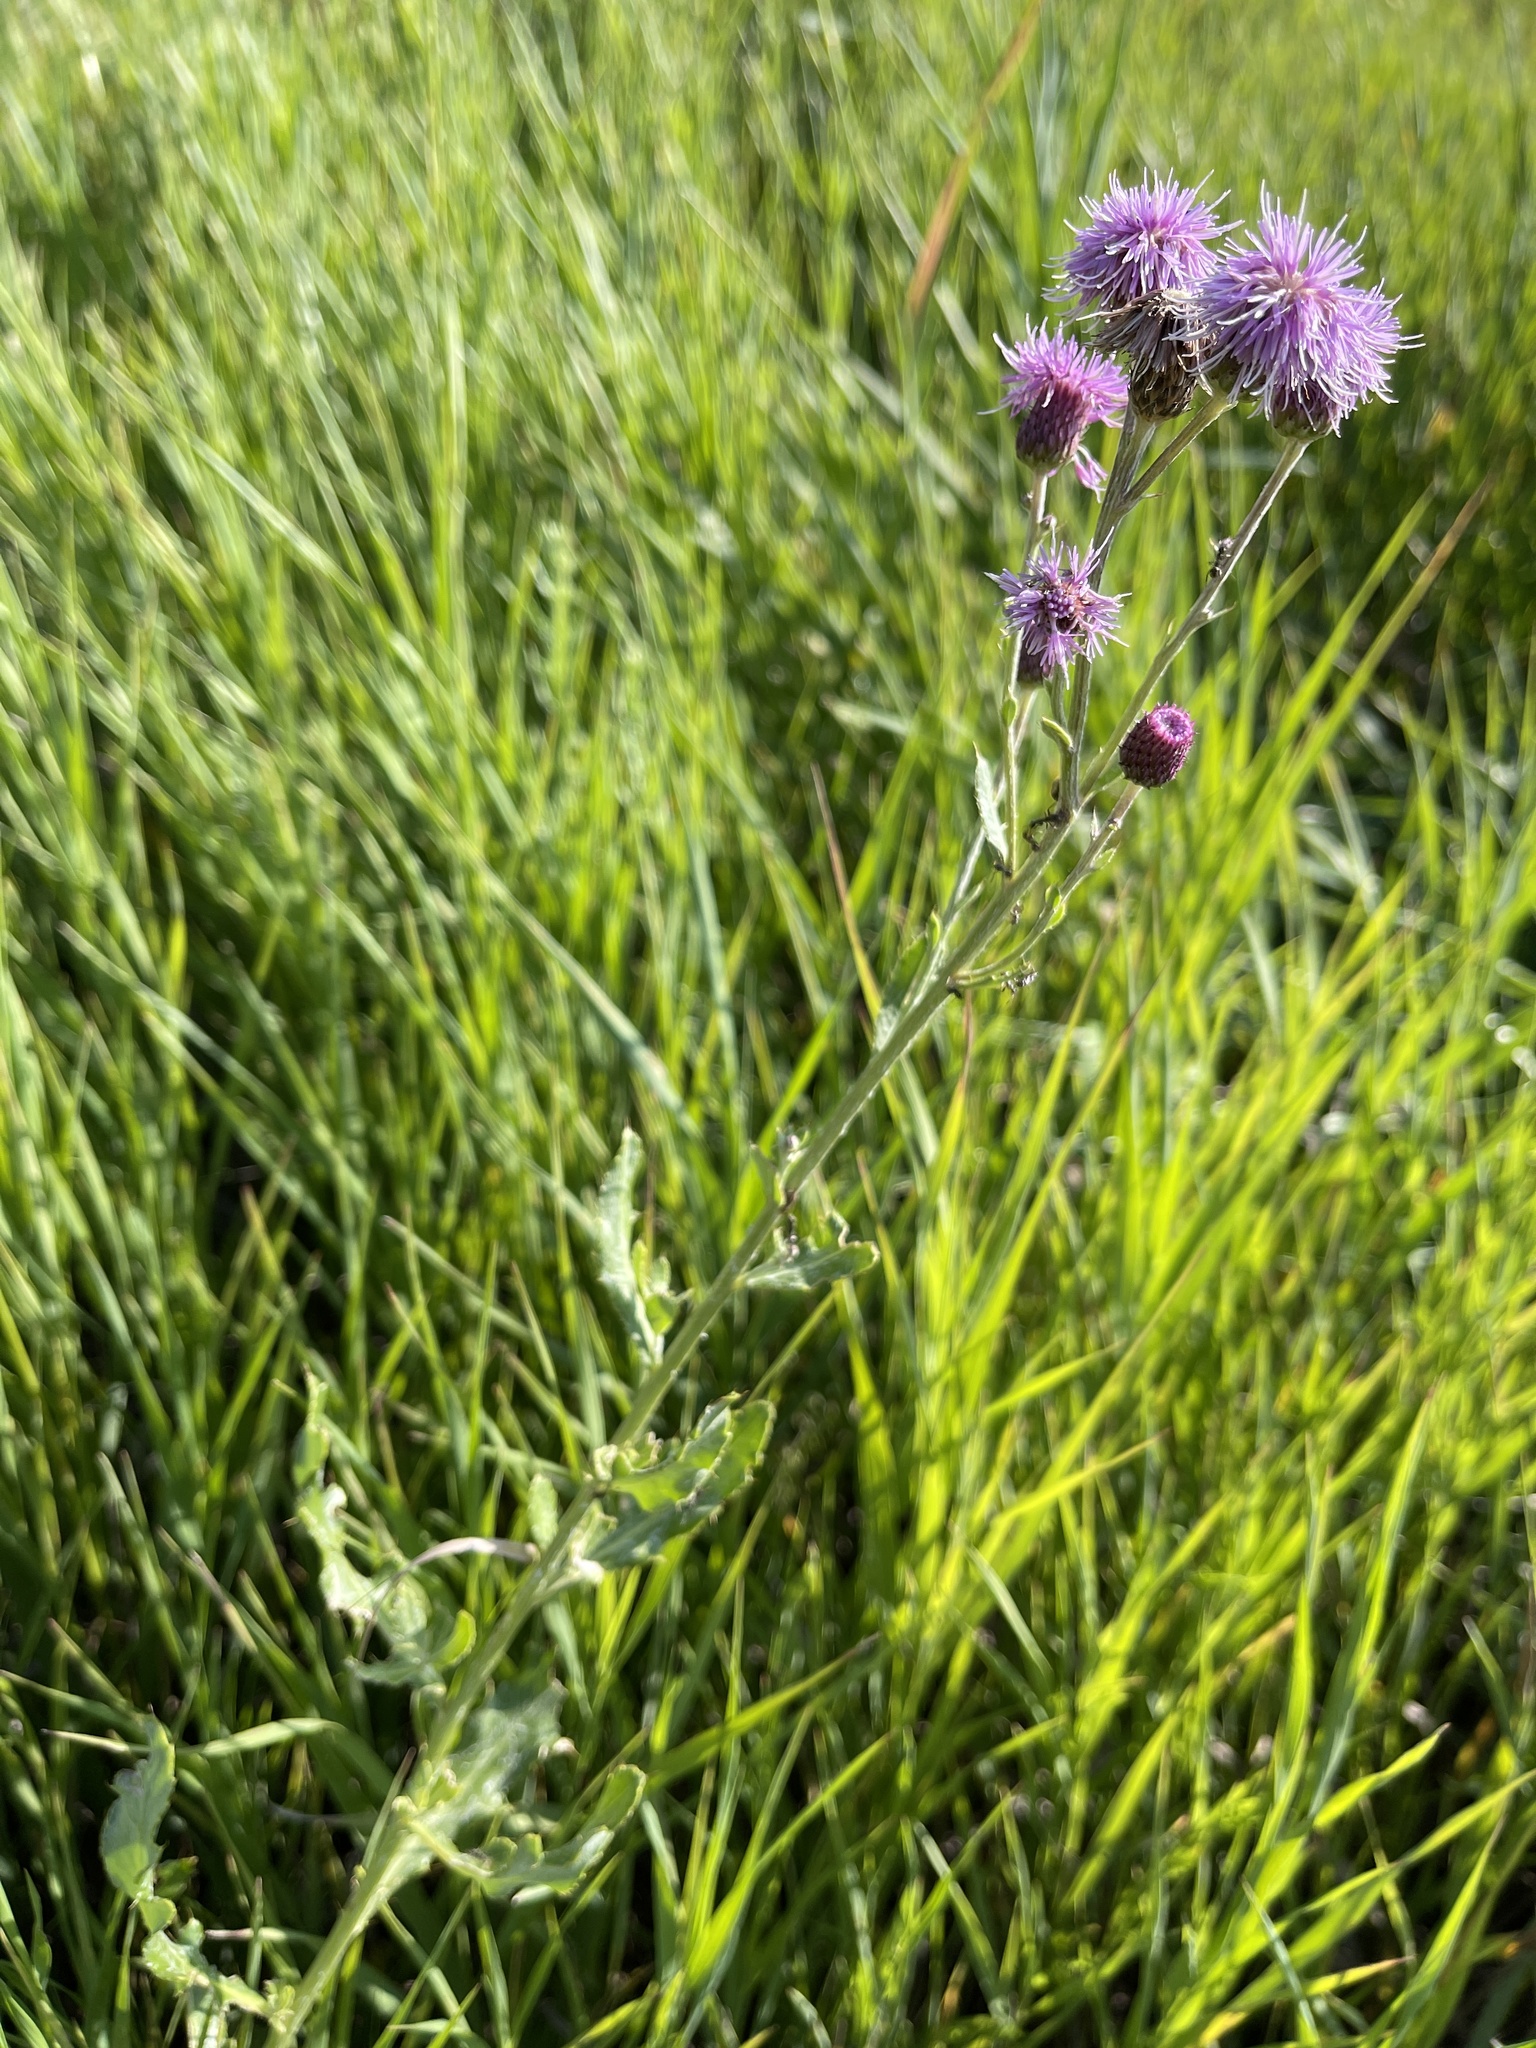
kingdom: Plantae
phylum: Tracheophyta
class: Magnoliopsida
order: Asterales
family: Asteraceae
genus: Cirsium
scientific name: Cirsium arvense
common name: Creeping thistle
